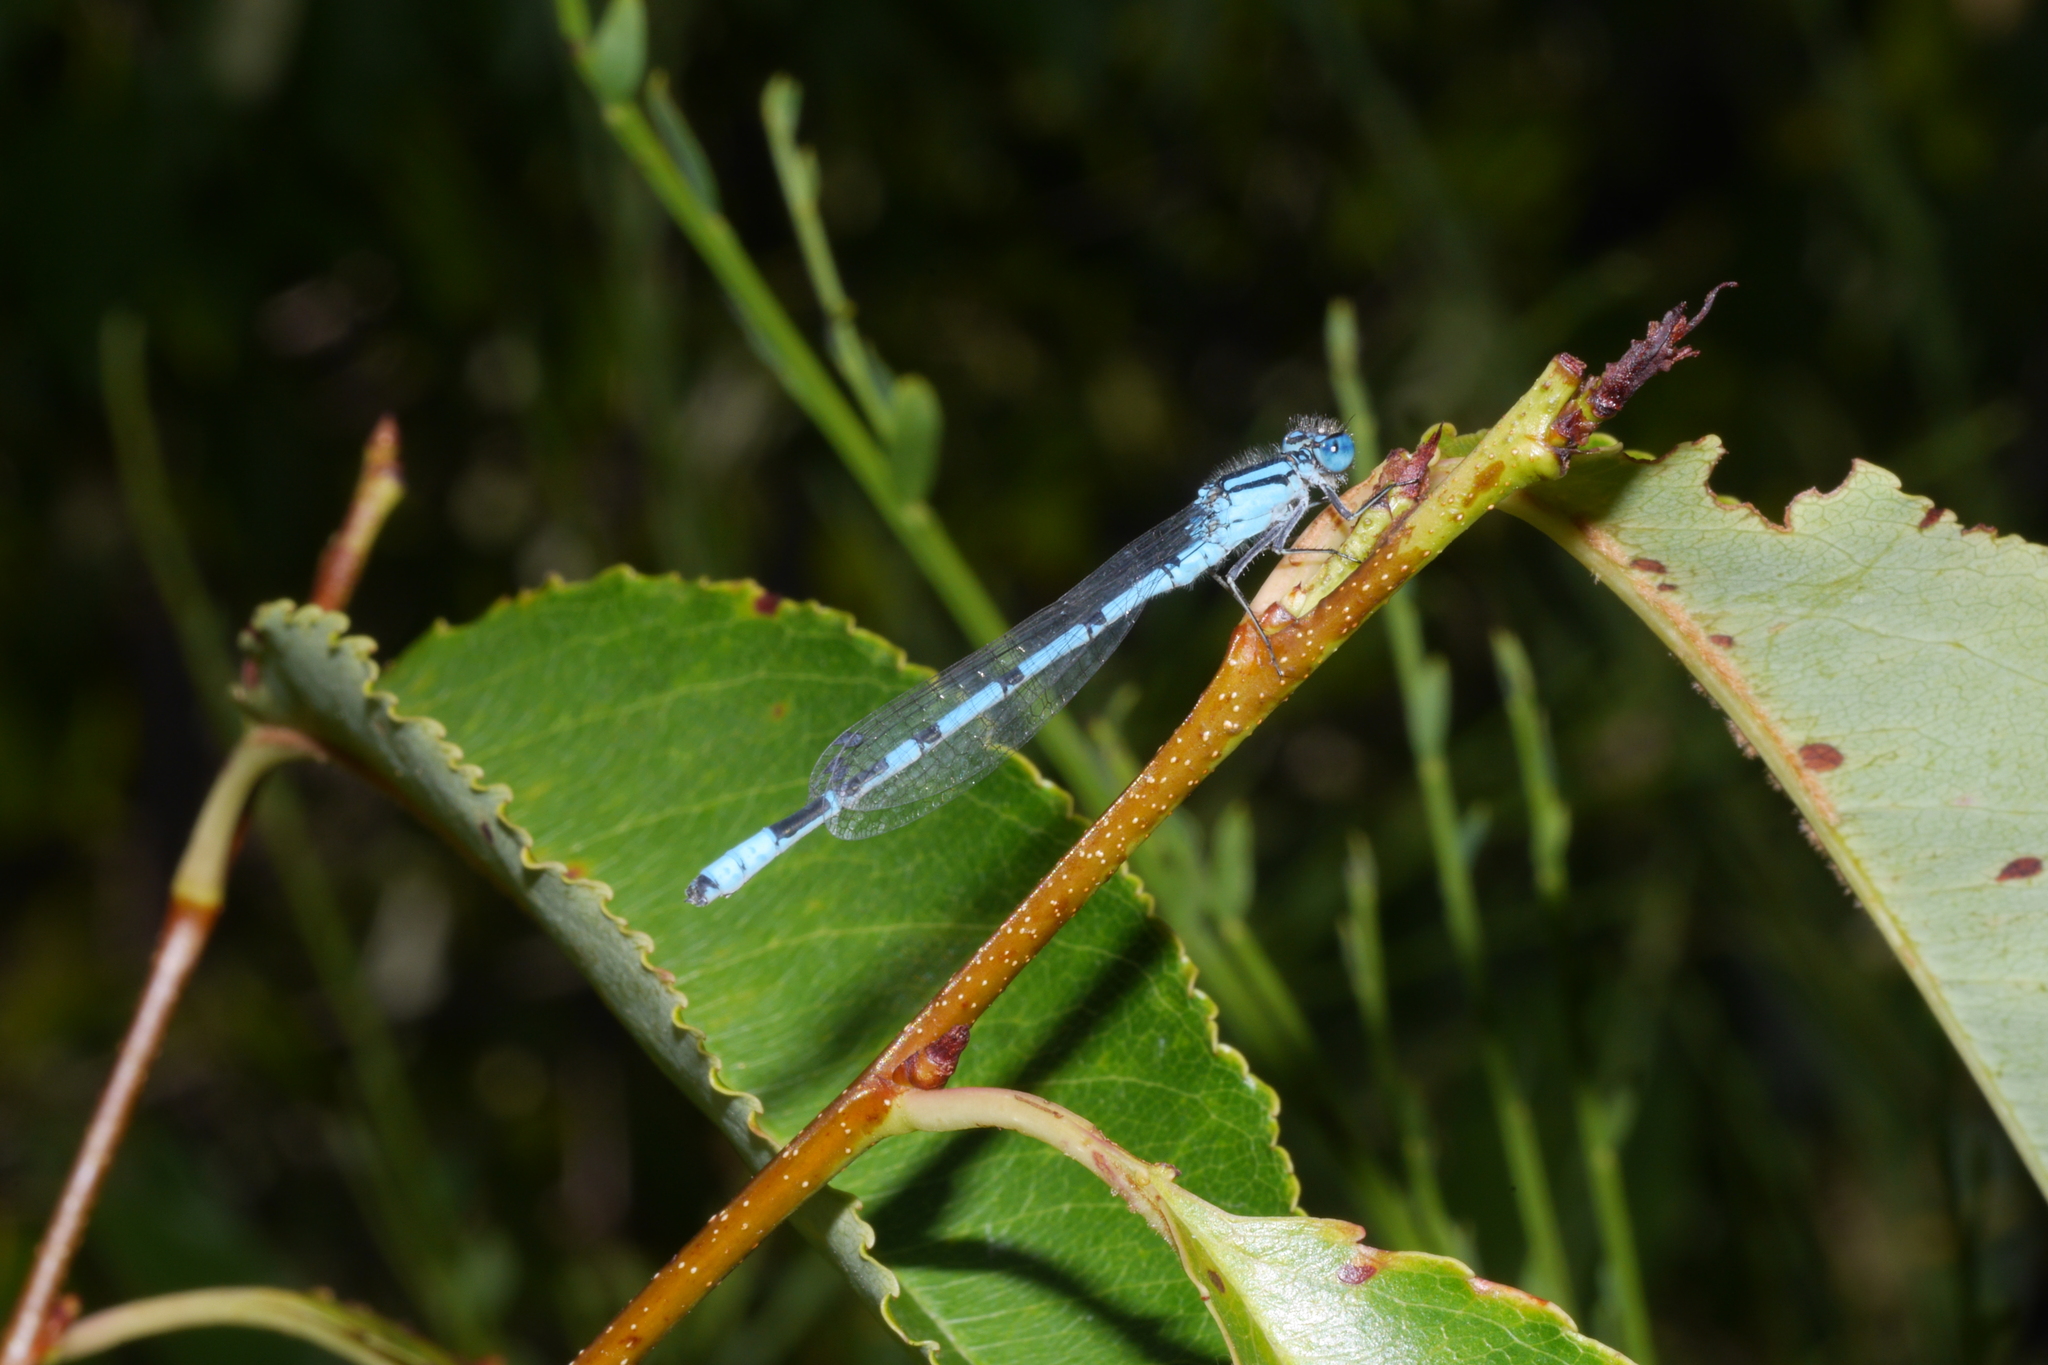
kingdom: Animalia
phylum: Arthropoda
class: Insecta
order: Odonata
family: Coenagrionidae
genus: Enallagma
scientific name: Enallagma cyathigerum
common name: Common blue damselfly
